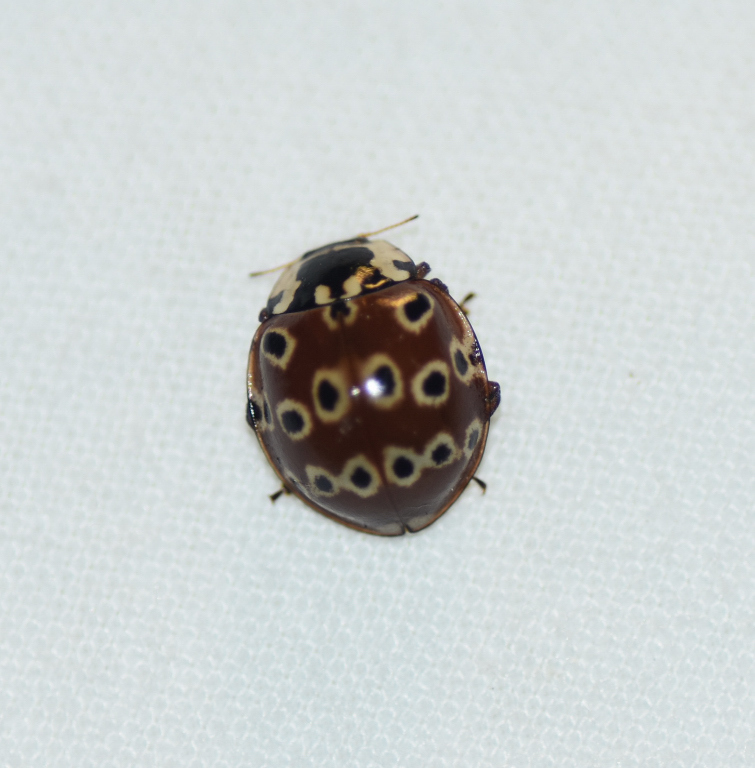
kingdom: Animalia
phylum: Arthropoda
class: Insecta
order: Coleoptera
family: Coccinellidae
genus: Anatis
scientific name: Anatis mali
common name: Eye-spotted lady beetle
